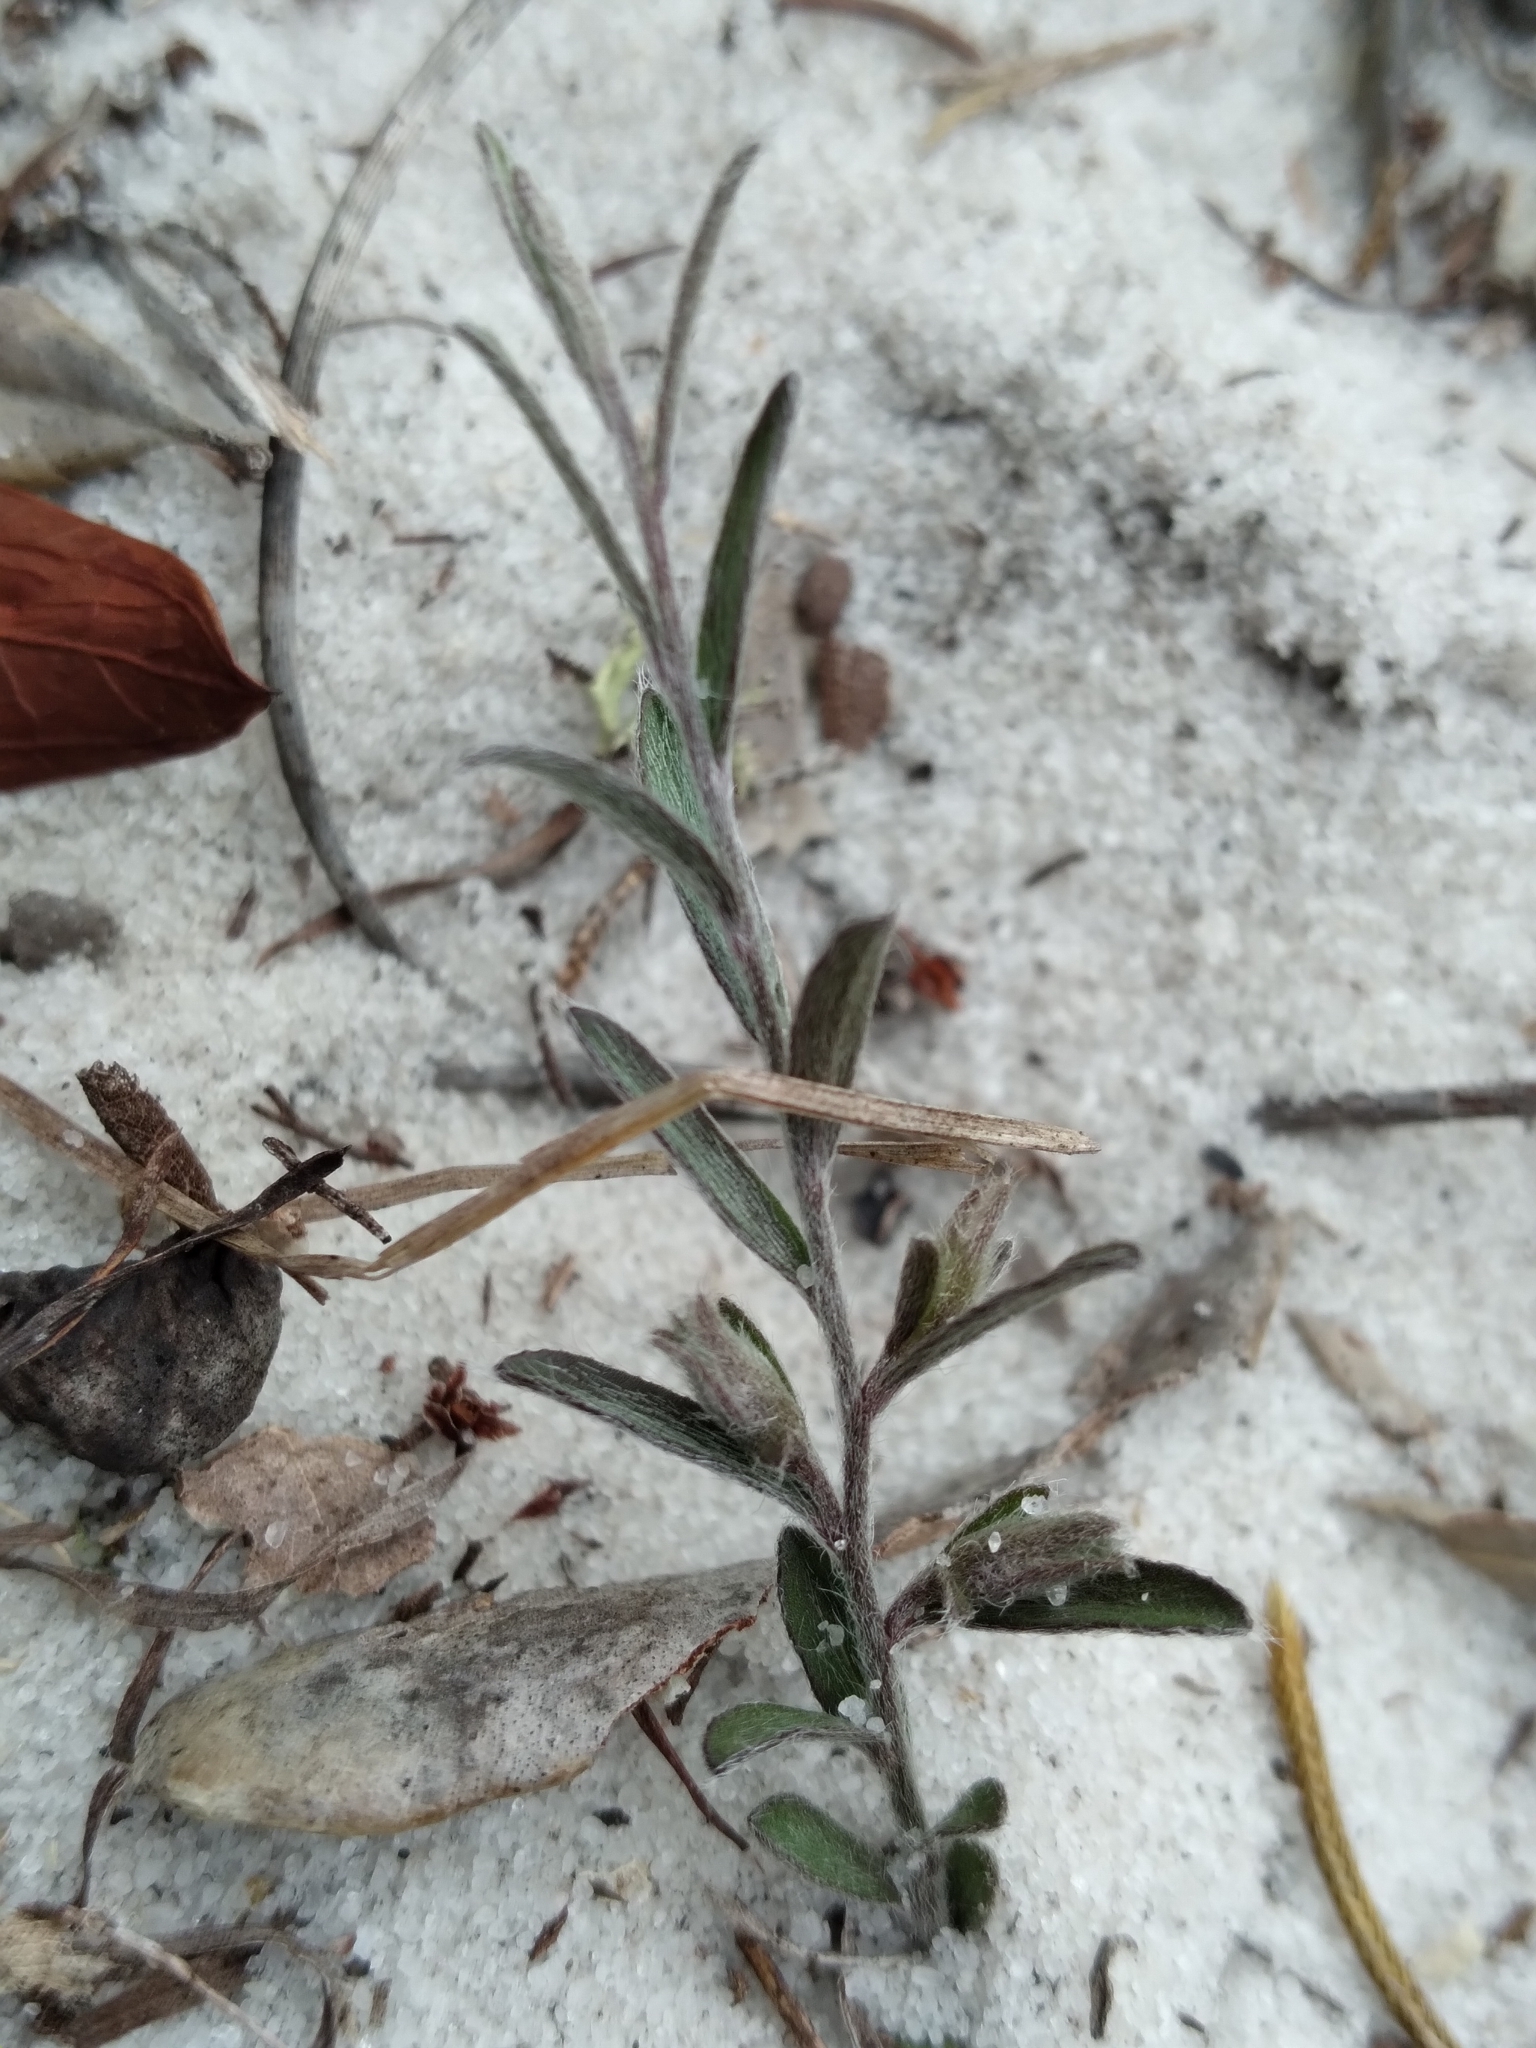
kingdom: Plantae
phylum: Tracheophyta
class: Magnoliopsida
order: Solanales
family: Convolvulaceae
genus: Stylisma
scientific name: Stylisma abdita
